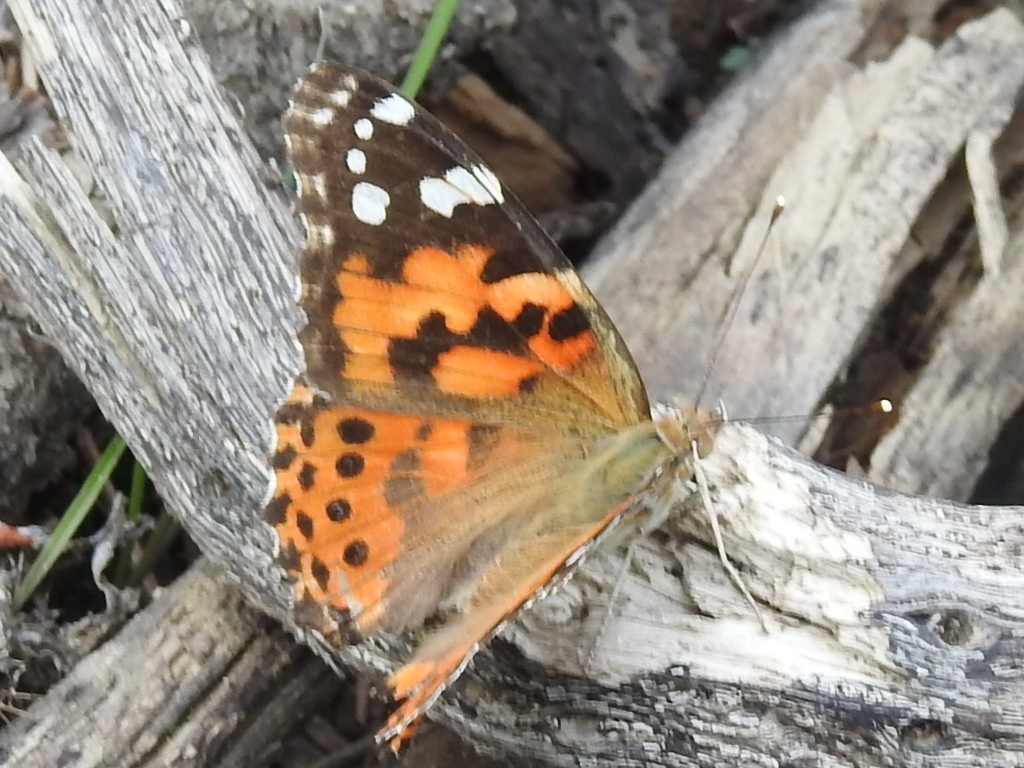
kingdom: Animalia
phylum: Arthropoda
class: Insecta
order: Lepidoptera
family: Nymphalidae
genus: Vanessa
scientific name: Vanessa cardui
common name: Painted lady
